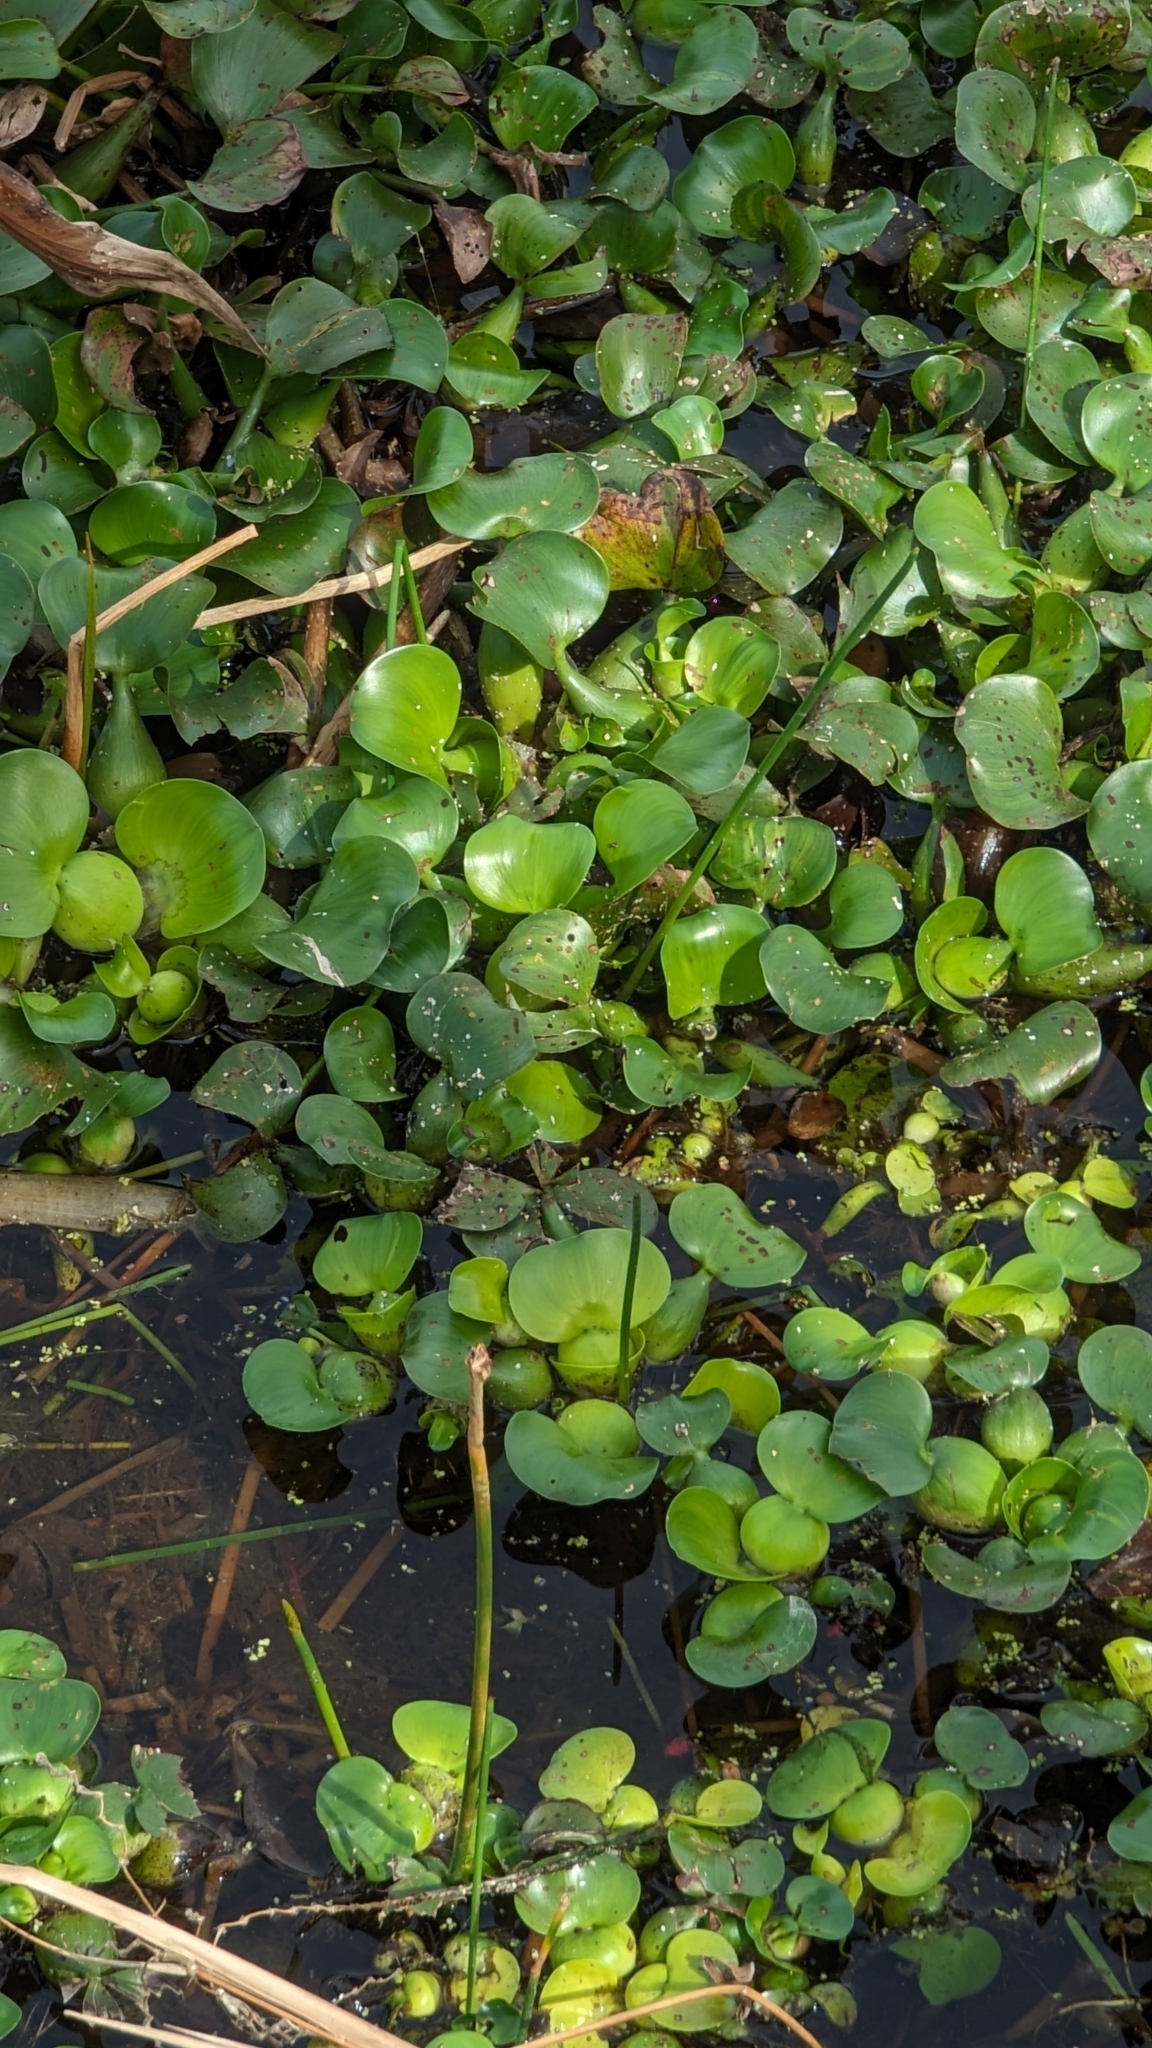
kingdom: Plantae
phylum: Tracheophyta
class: Liliopsida
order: Commelinales
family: Pontederiaceae
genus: Pontederia
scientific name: Pontederia crassipes
